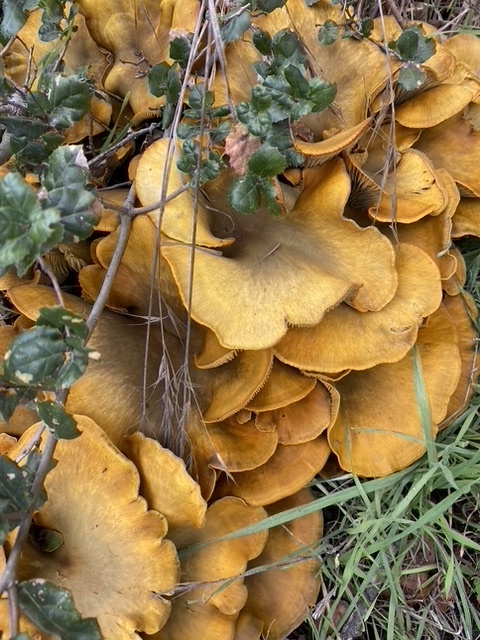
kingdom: Fungi
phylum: Basidiomycota
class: Agaricomycetes
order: Agaricales
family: Omphalotaceae
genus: Omphalotus
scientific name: Omphalotus olivascens
